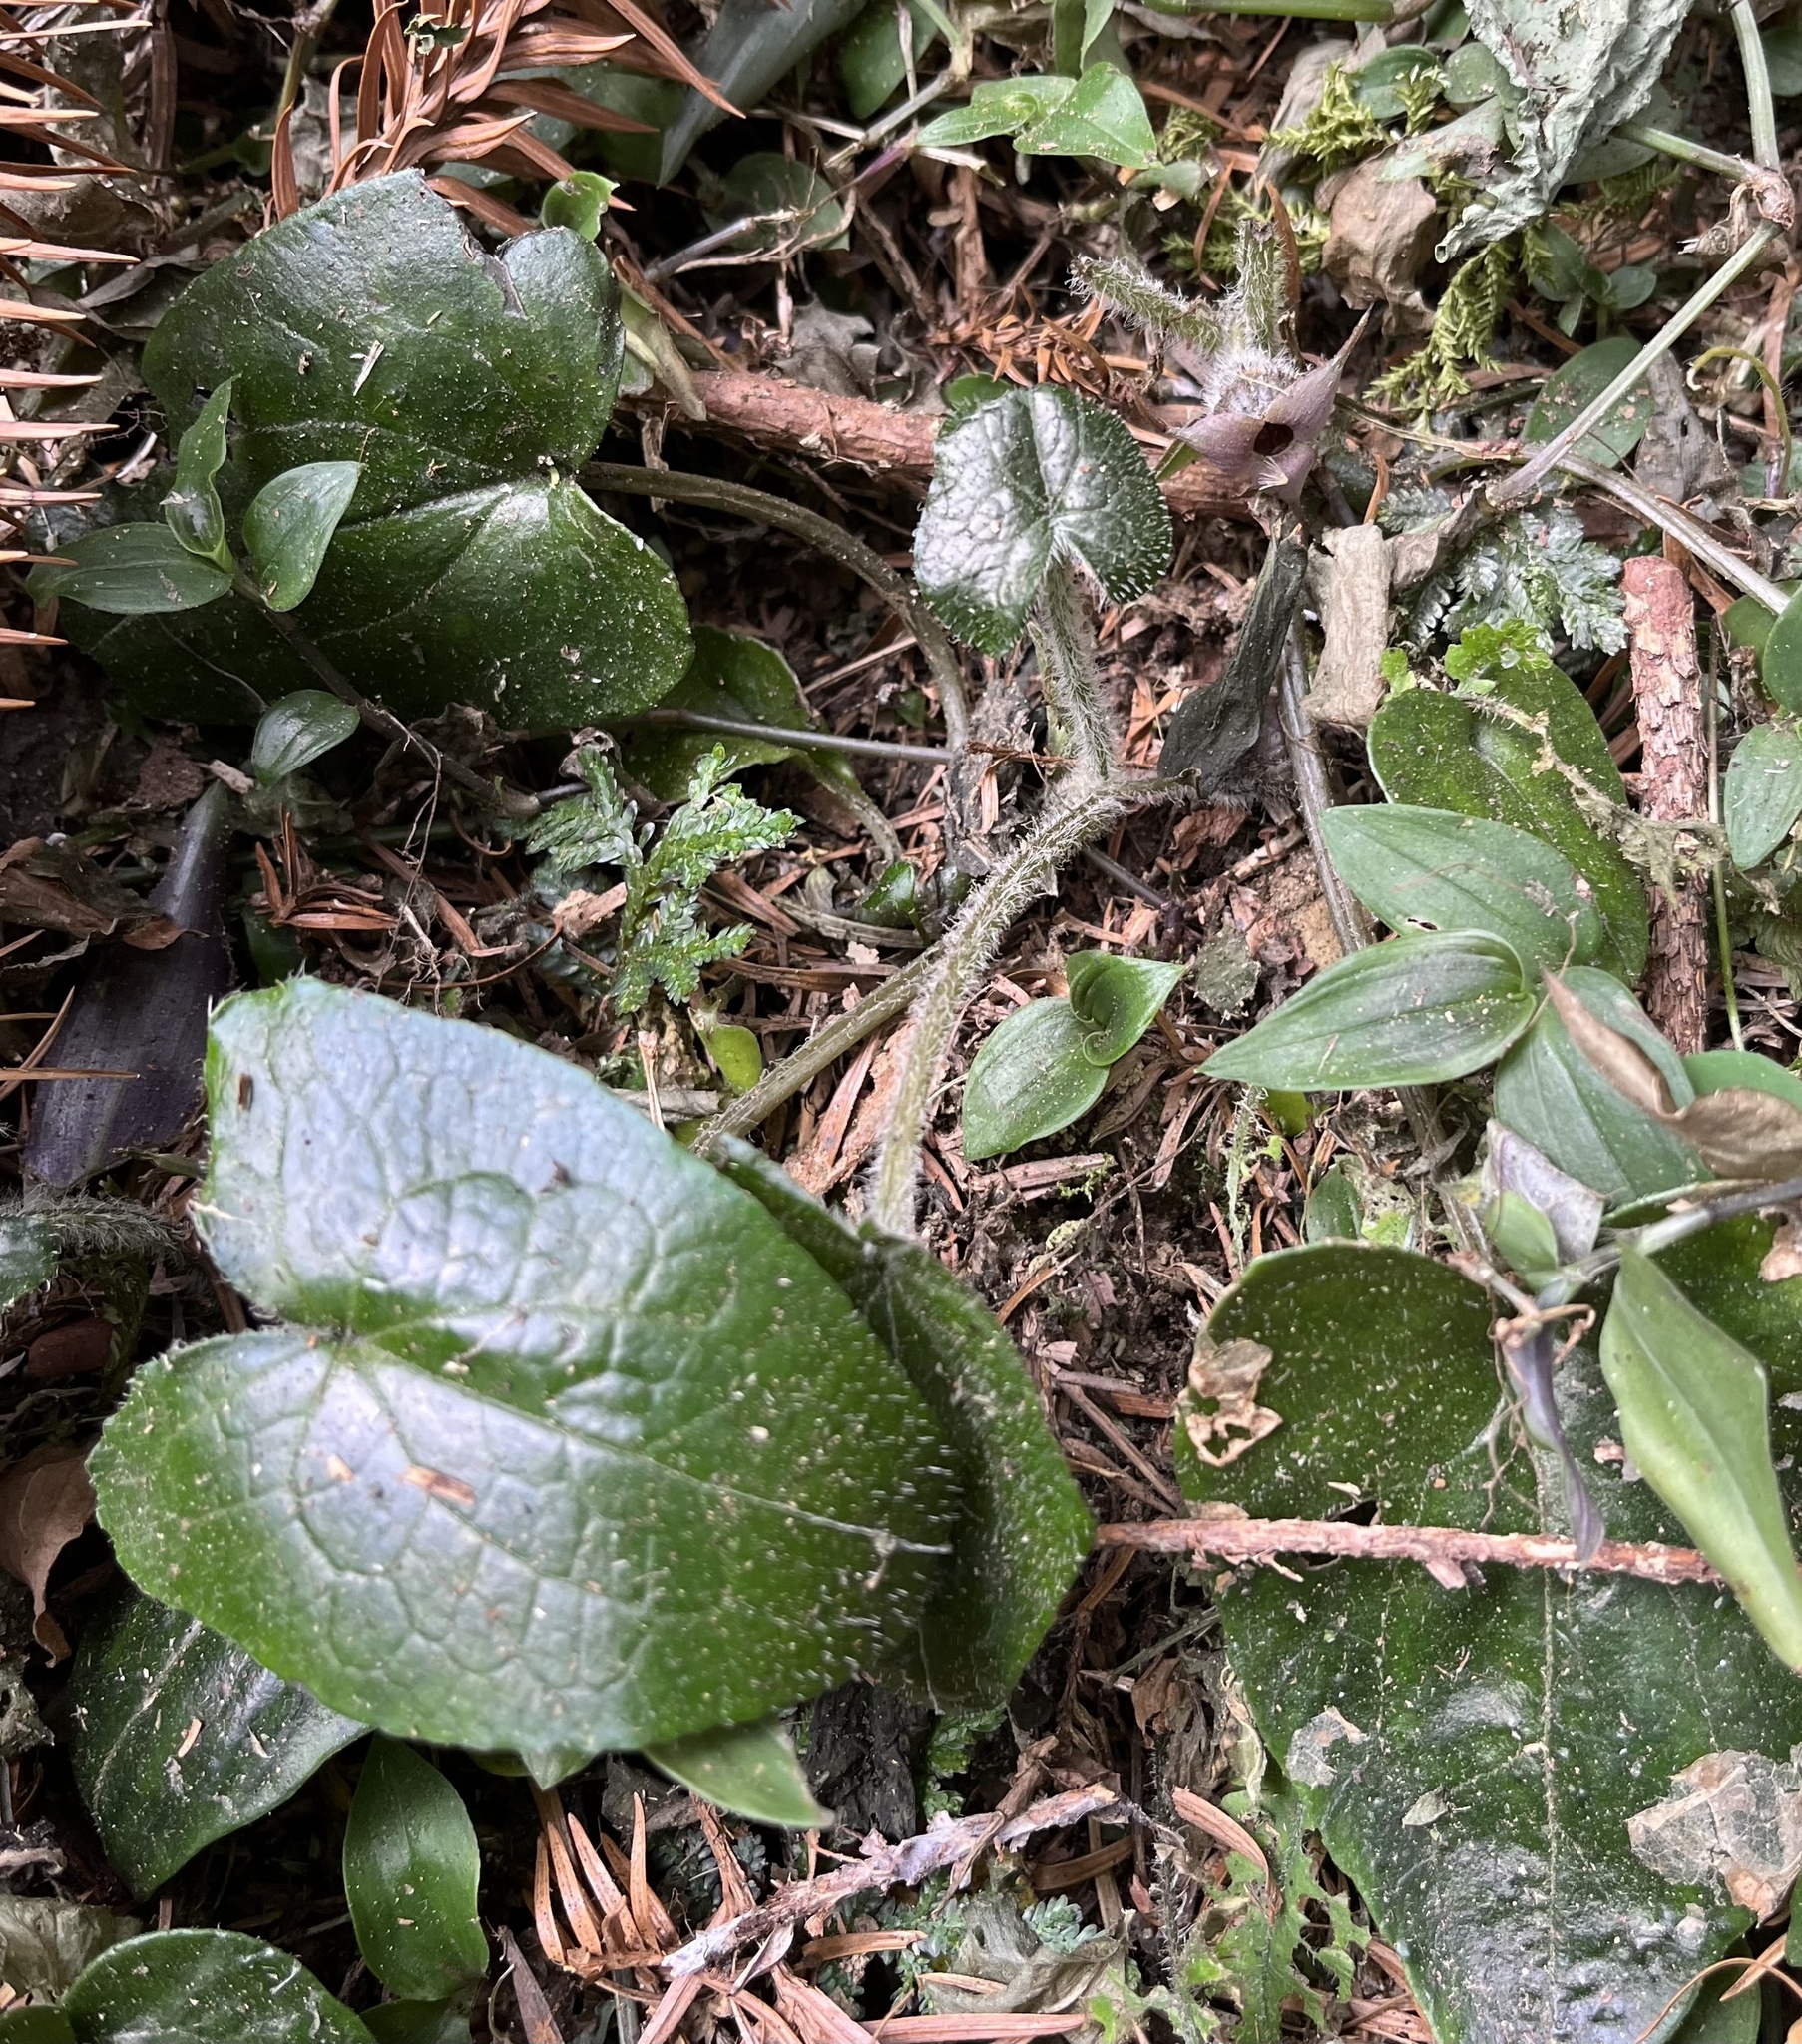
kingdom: Plantae
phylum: Tracheophyta
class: Magnoliopsida
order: Piperales
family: Aristolochiaceae
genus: Asarum
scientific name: Asarum caudigerum
